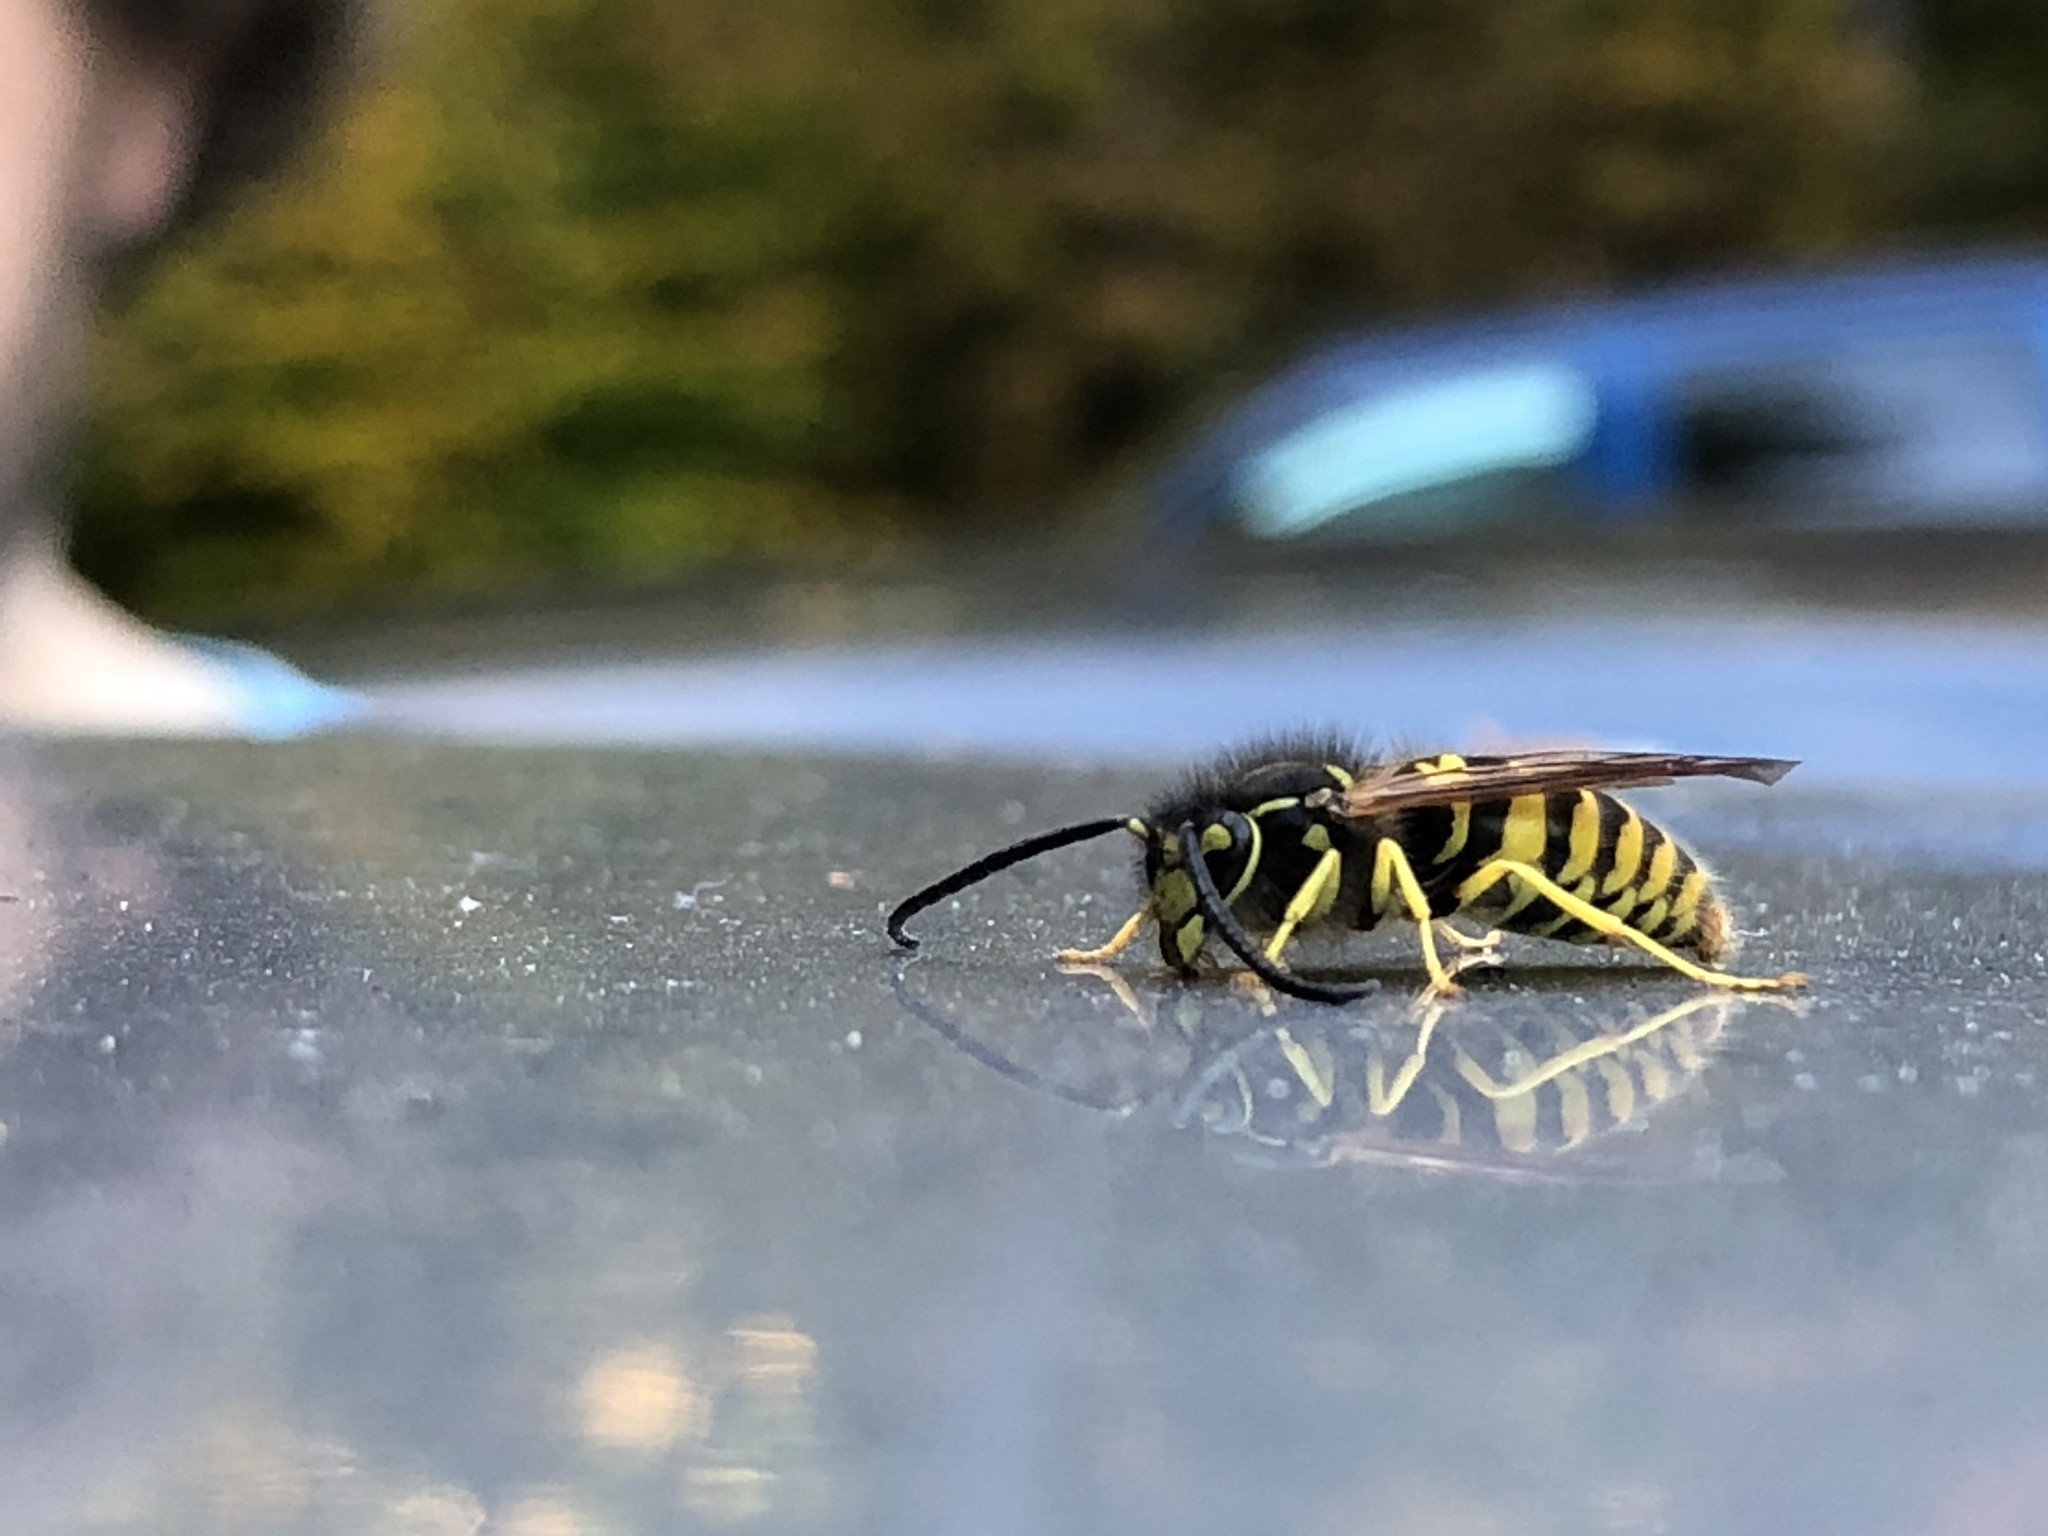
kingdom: Animalia
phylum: Arthropoda
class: Insecta
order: Hymenoptera
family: Vespidae
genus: Vespula
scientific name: Vespula maculifrons
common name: Eastern yellowjacket
